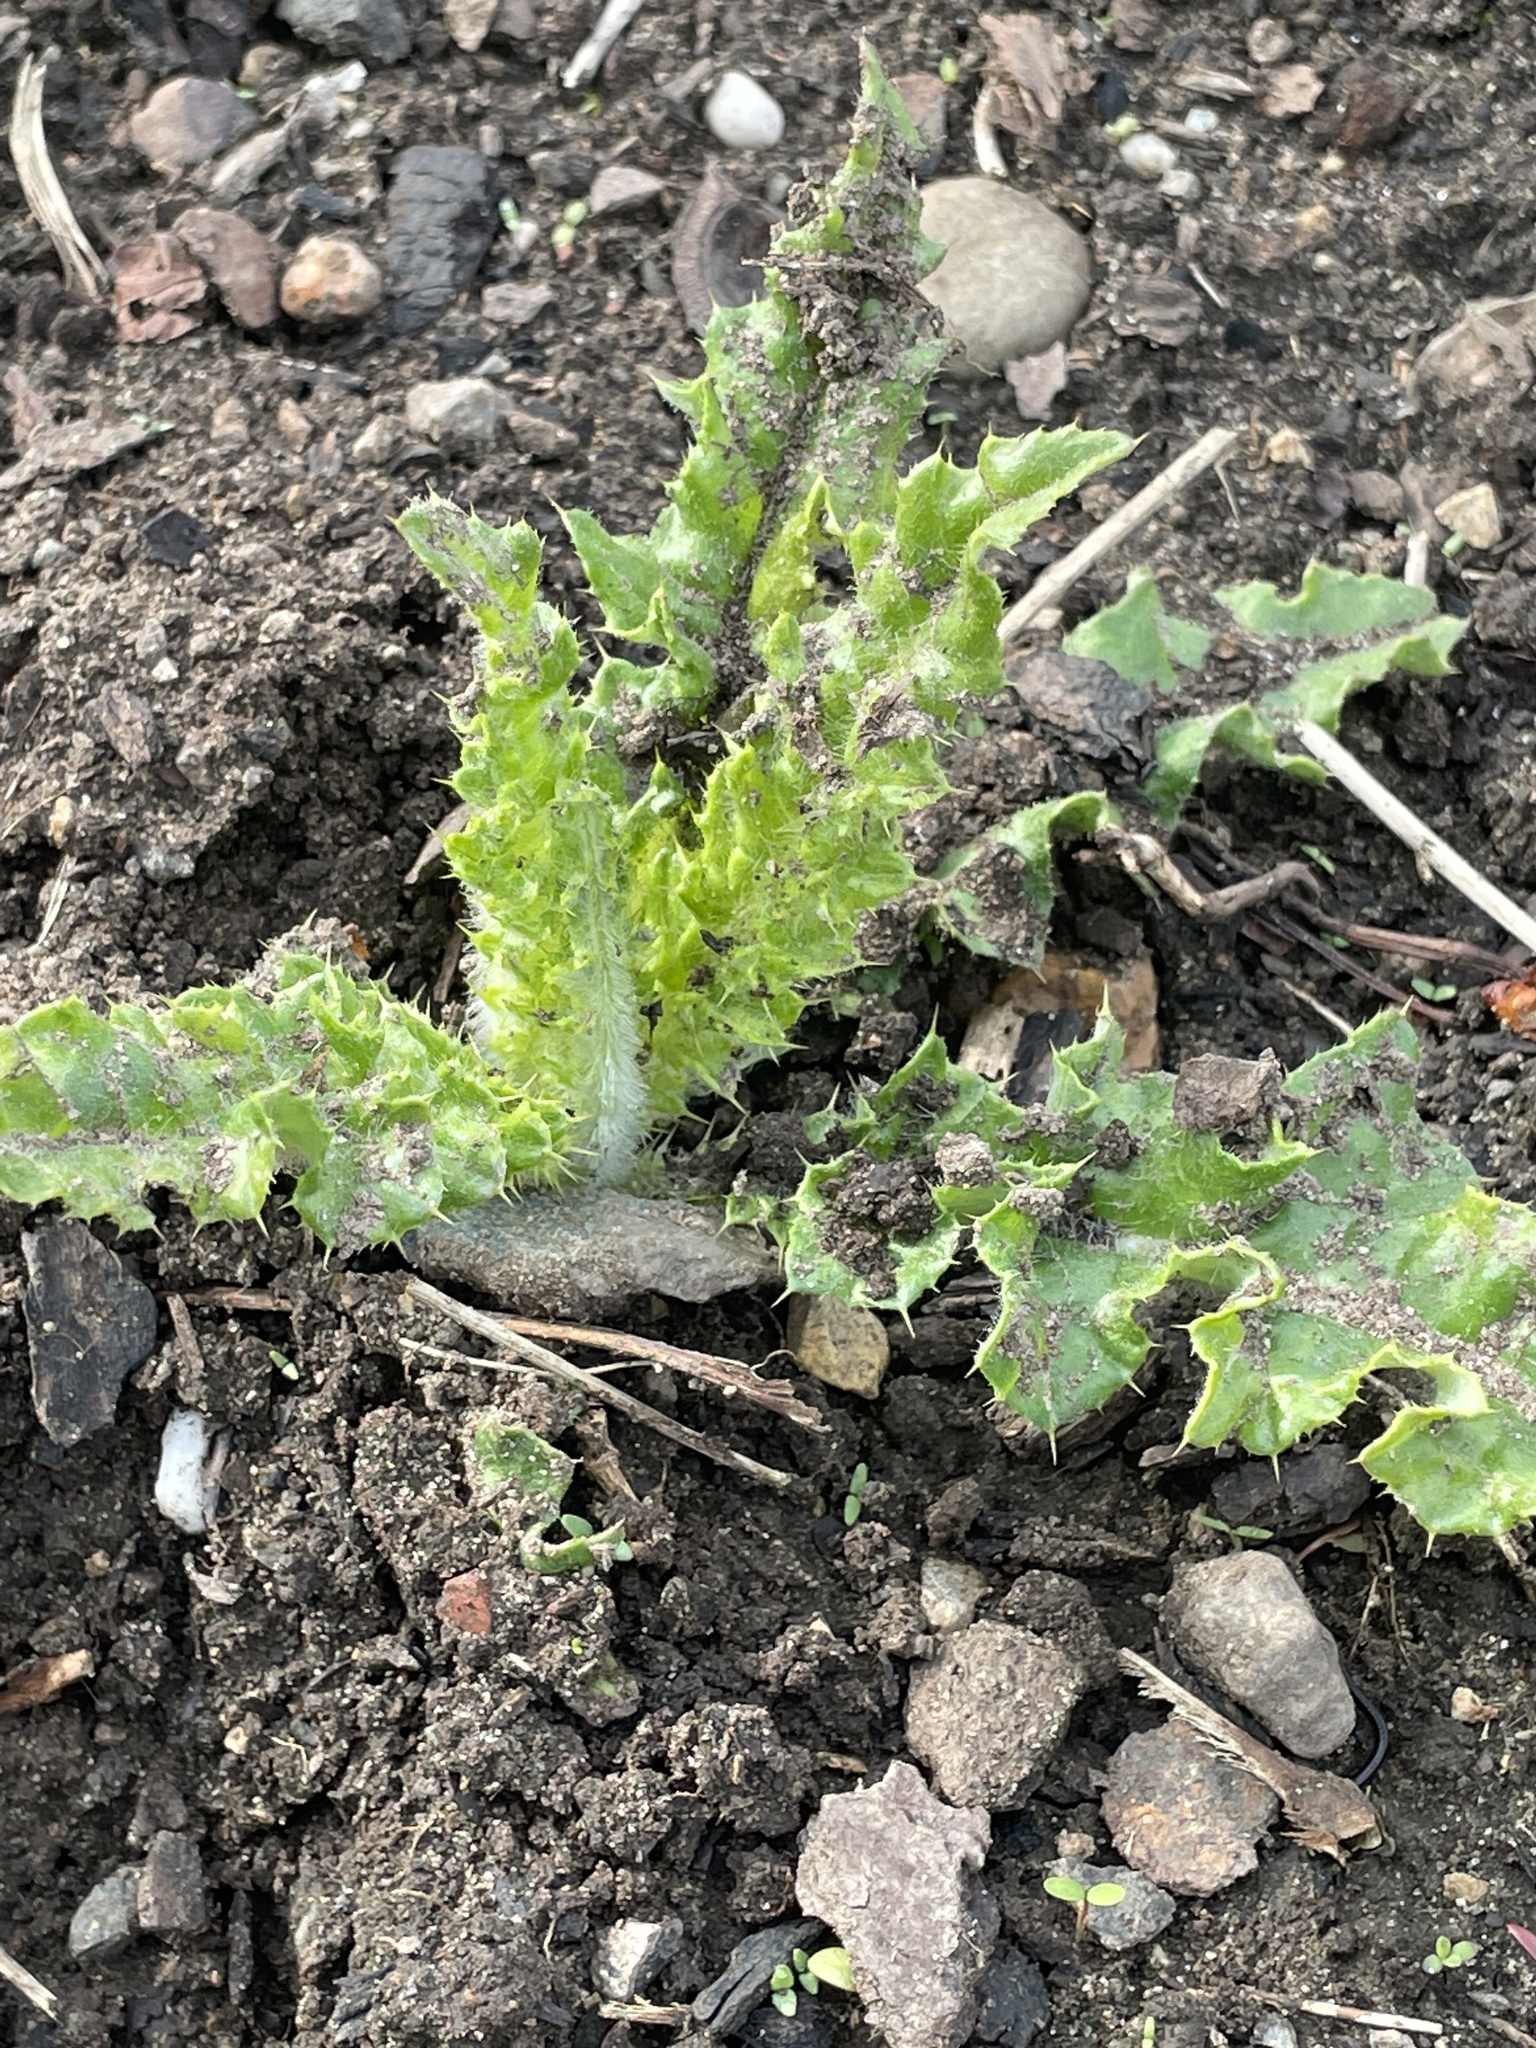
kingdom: Plantae
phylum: Tracheophyta
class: Magnoliopsida
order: Asterales
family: Asteraceae
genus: Cirsium
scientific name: Cirsium arvense
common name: Creeping thistle
